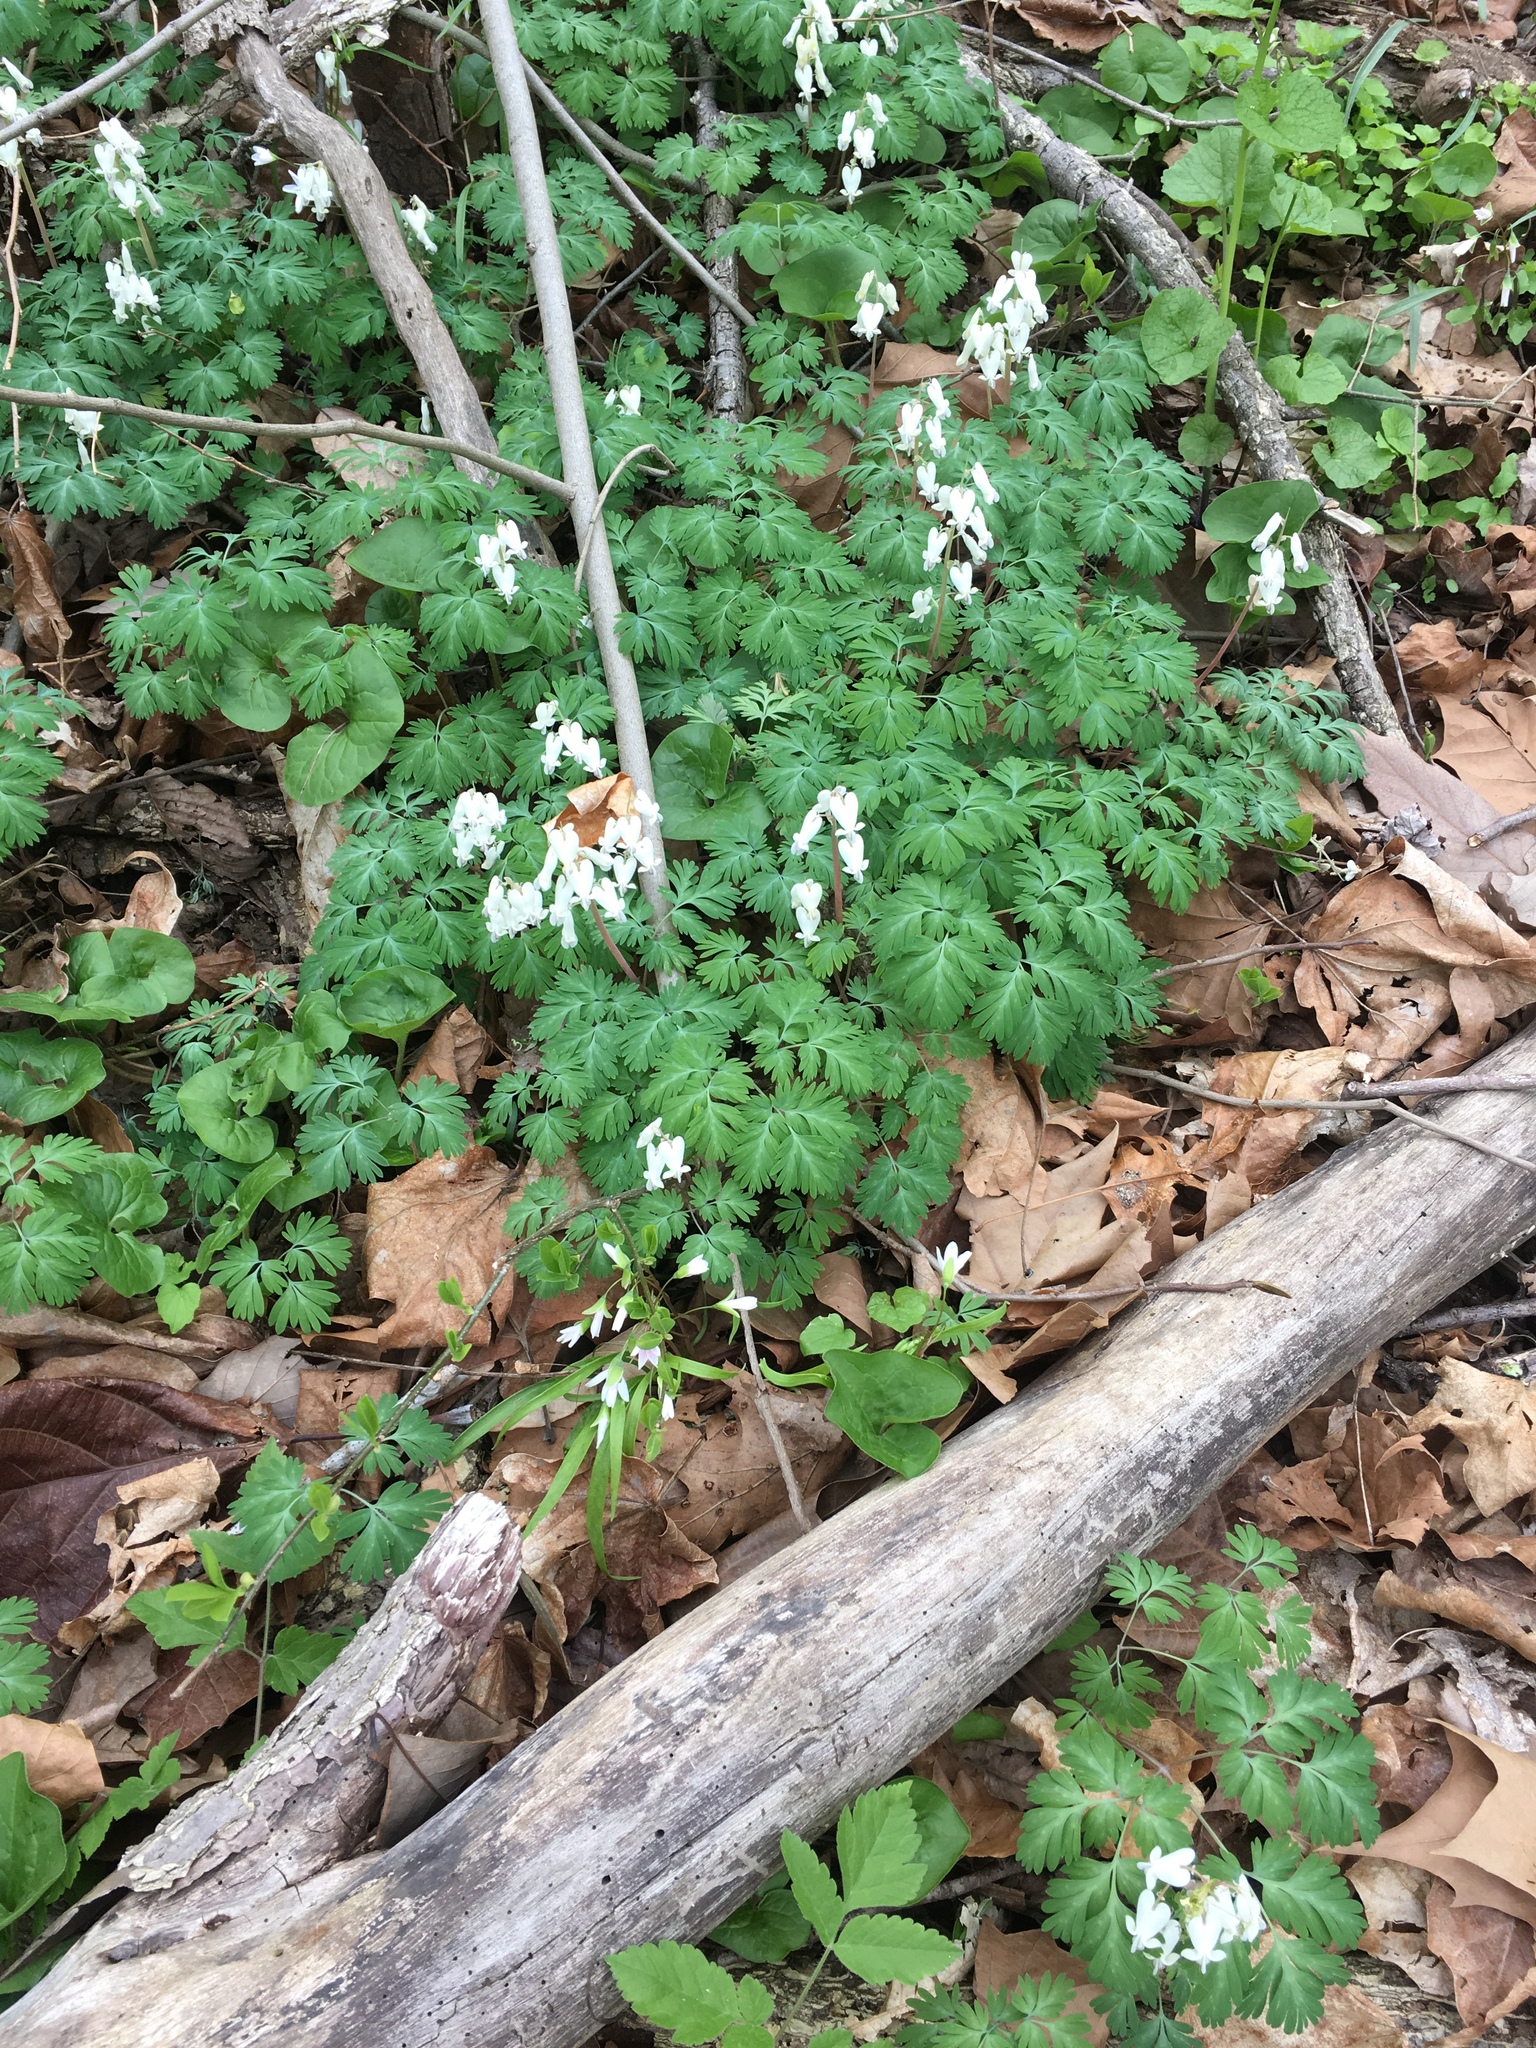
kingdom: Plantae
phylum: Tracheophyta
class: Magnoliopsida
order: Ranunculales
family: Papaveraceae
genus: Dicentra
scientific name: Dicentra canadensis
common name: Squirrel-corn
